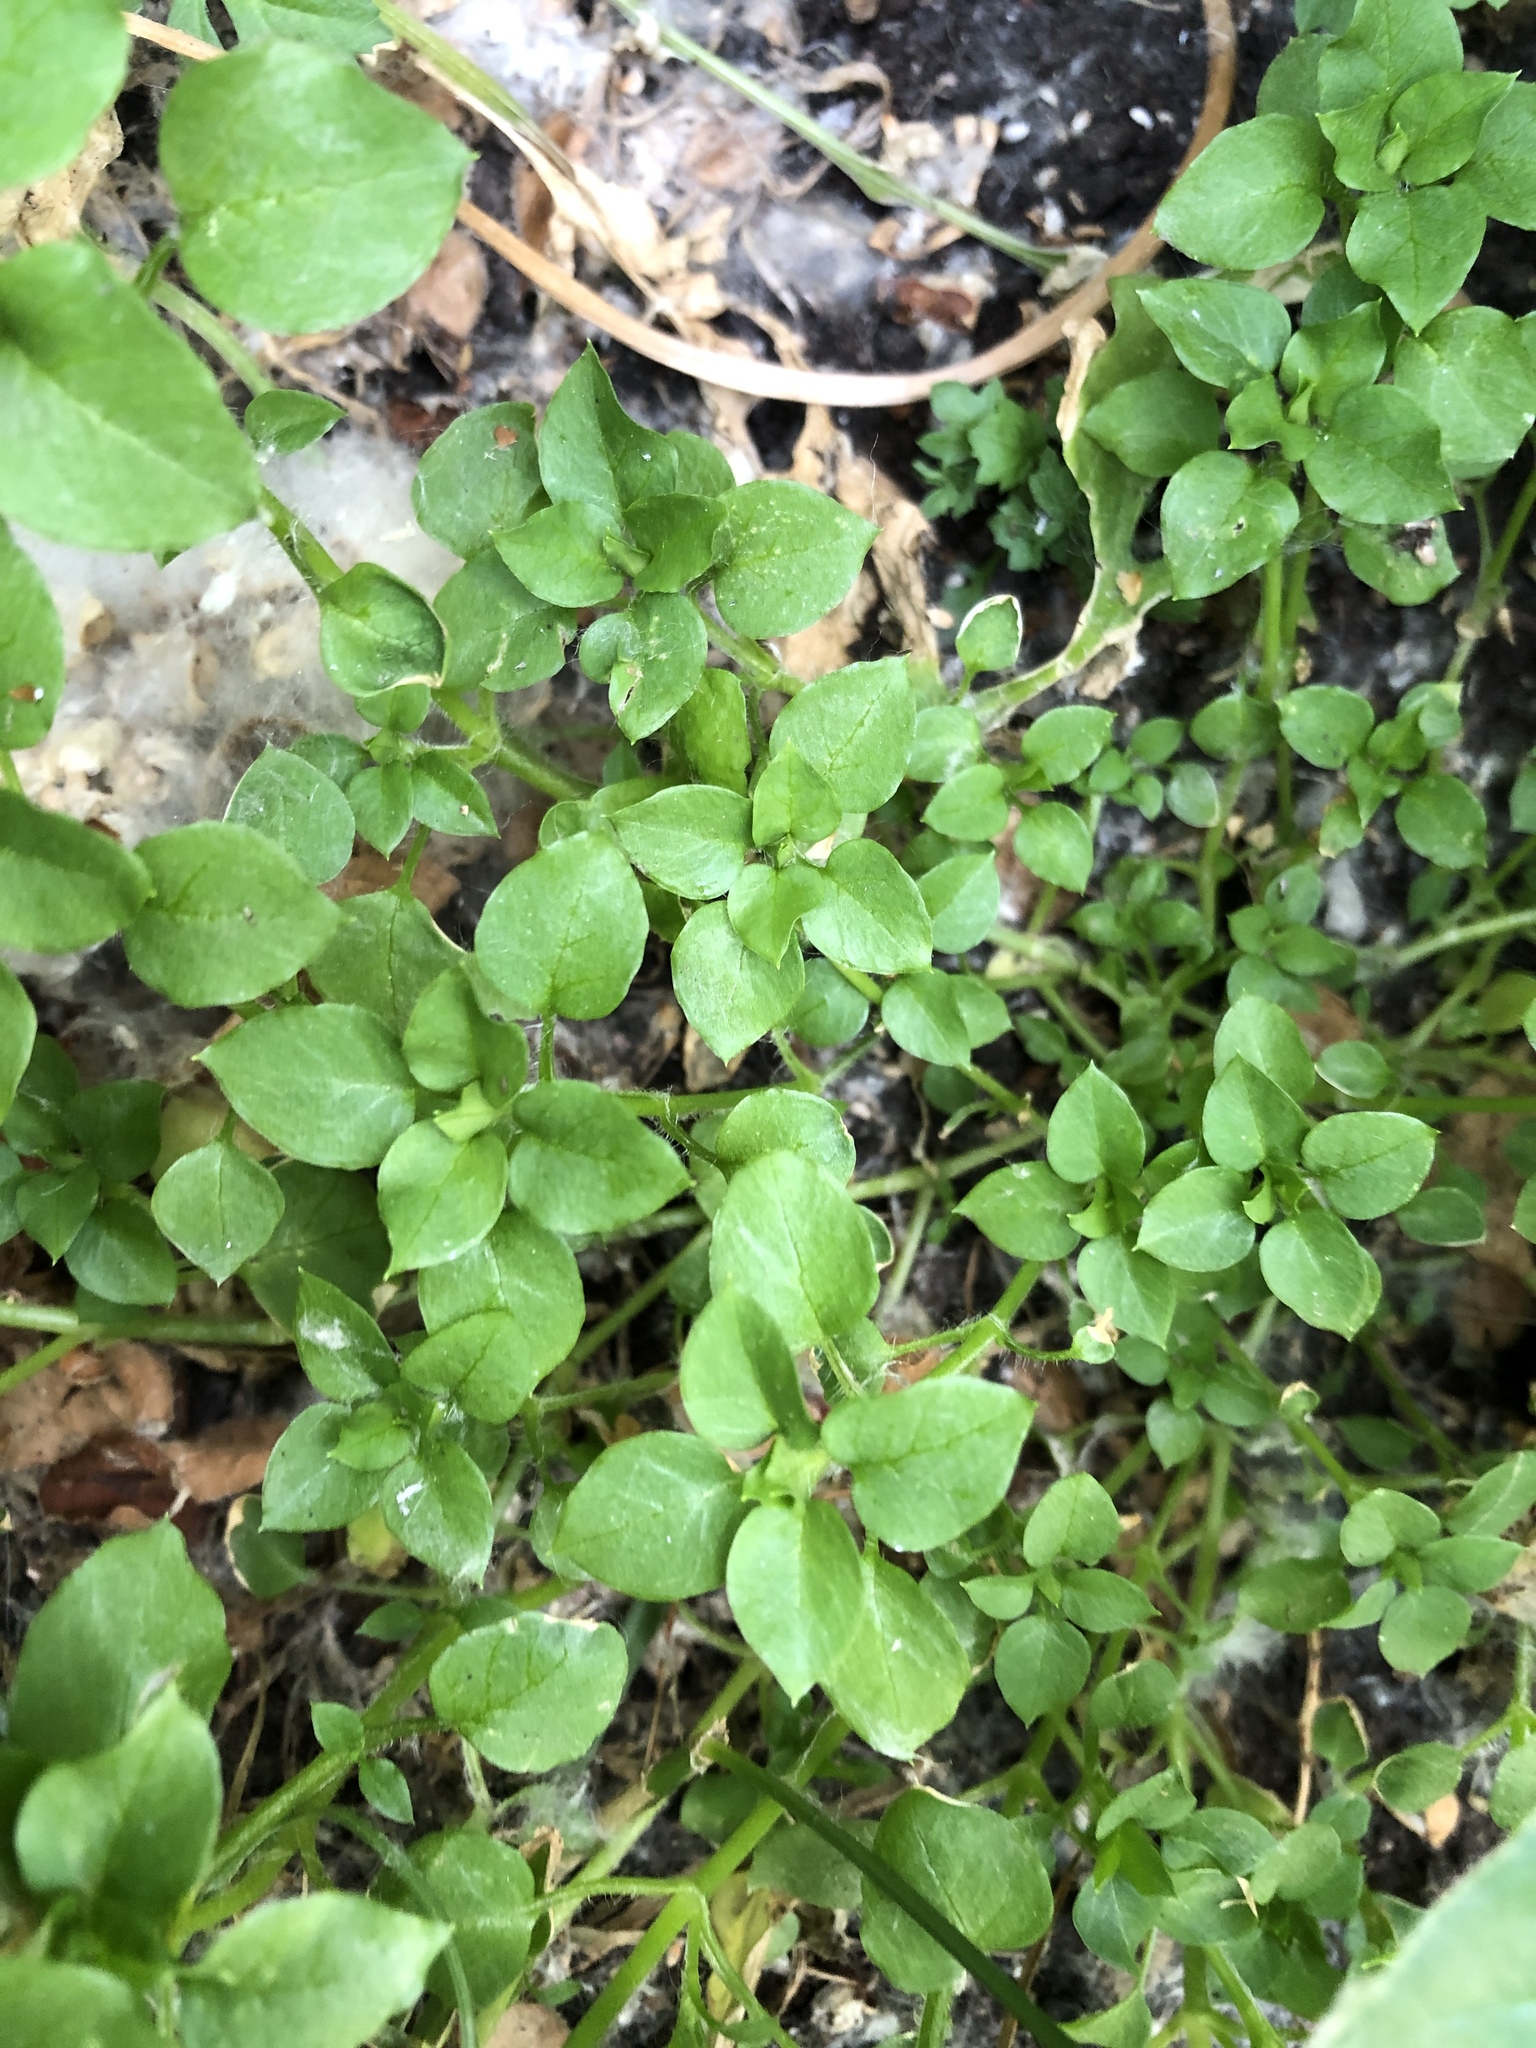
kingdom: Plantae
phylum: Tracheophyta
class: Magnoliopsida
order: Caryophyllales
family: Caryophyllaceae
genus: Stellaria
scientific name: Stellaria media
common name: Common chickweed
